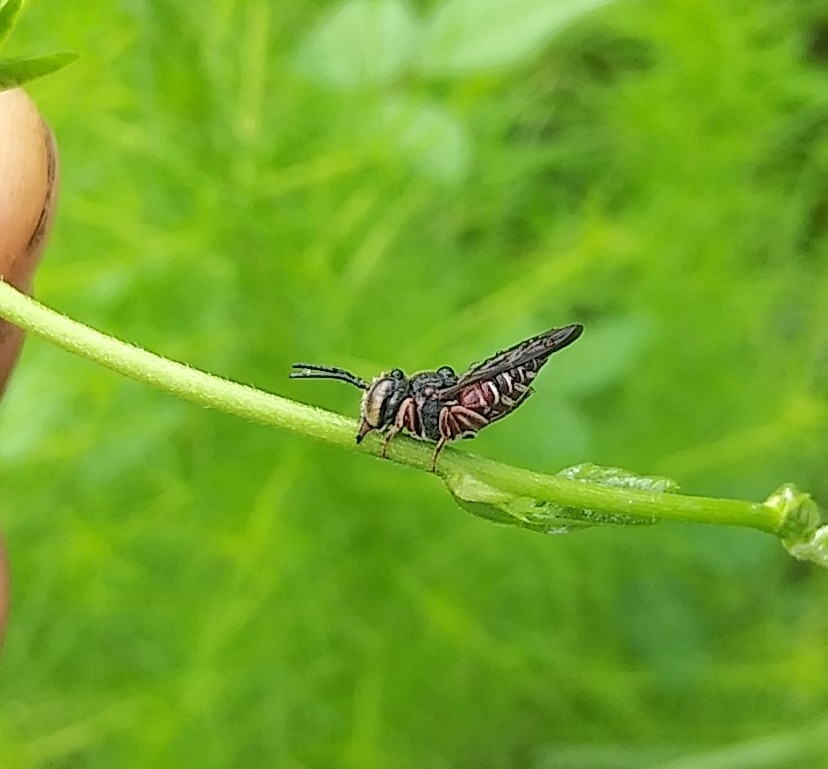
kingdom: Animalia
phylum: Arthropoda
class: Insecta
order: Hymenoptera
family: Megachilidae
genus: Coelioxys
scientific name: Coelioxys slossoni
